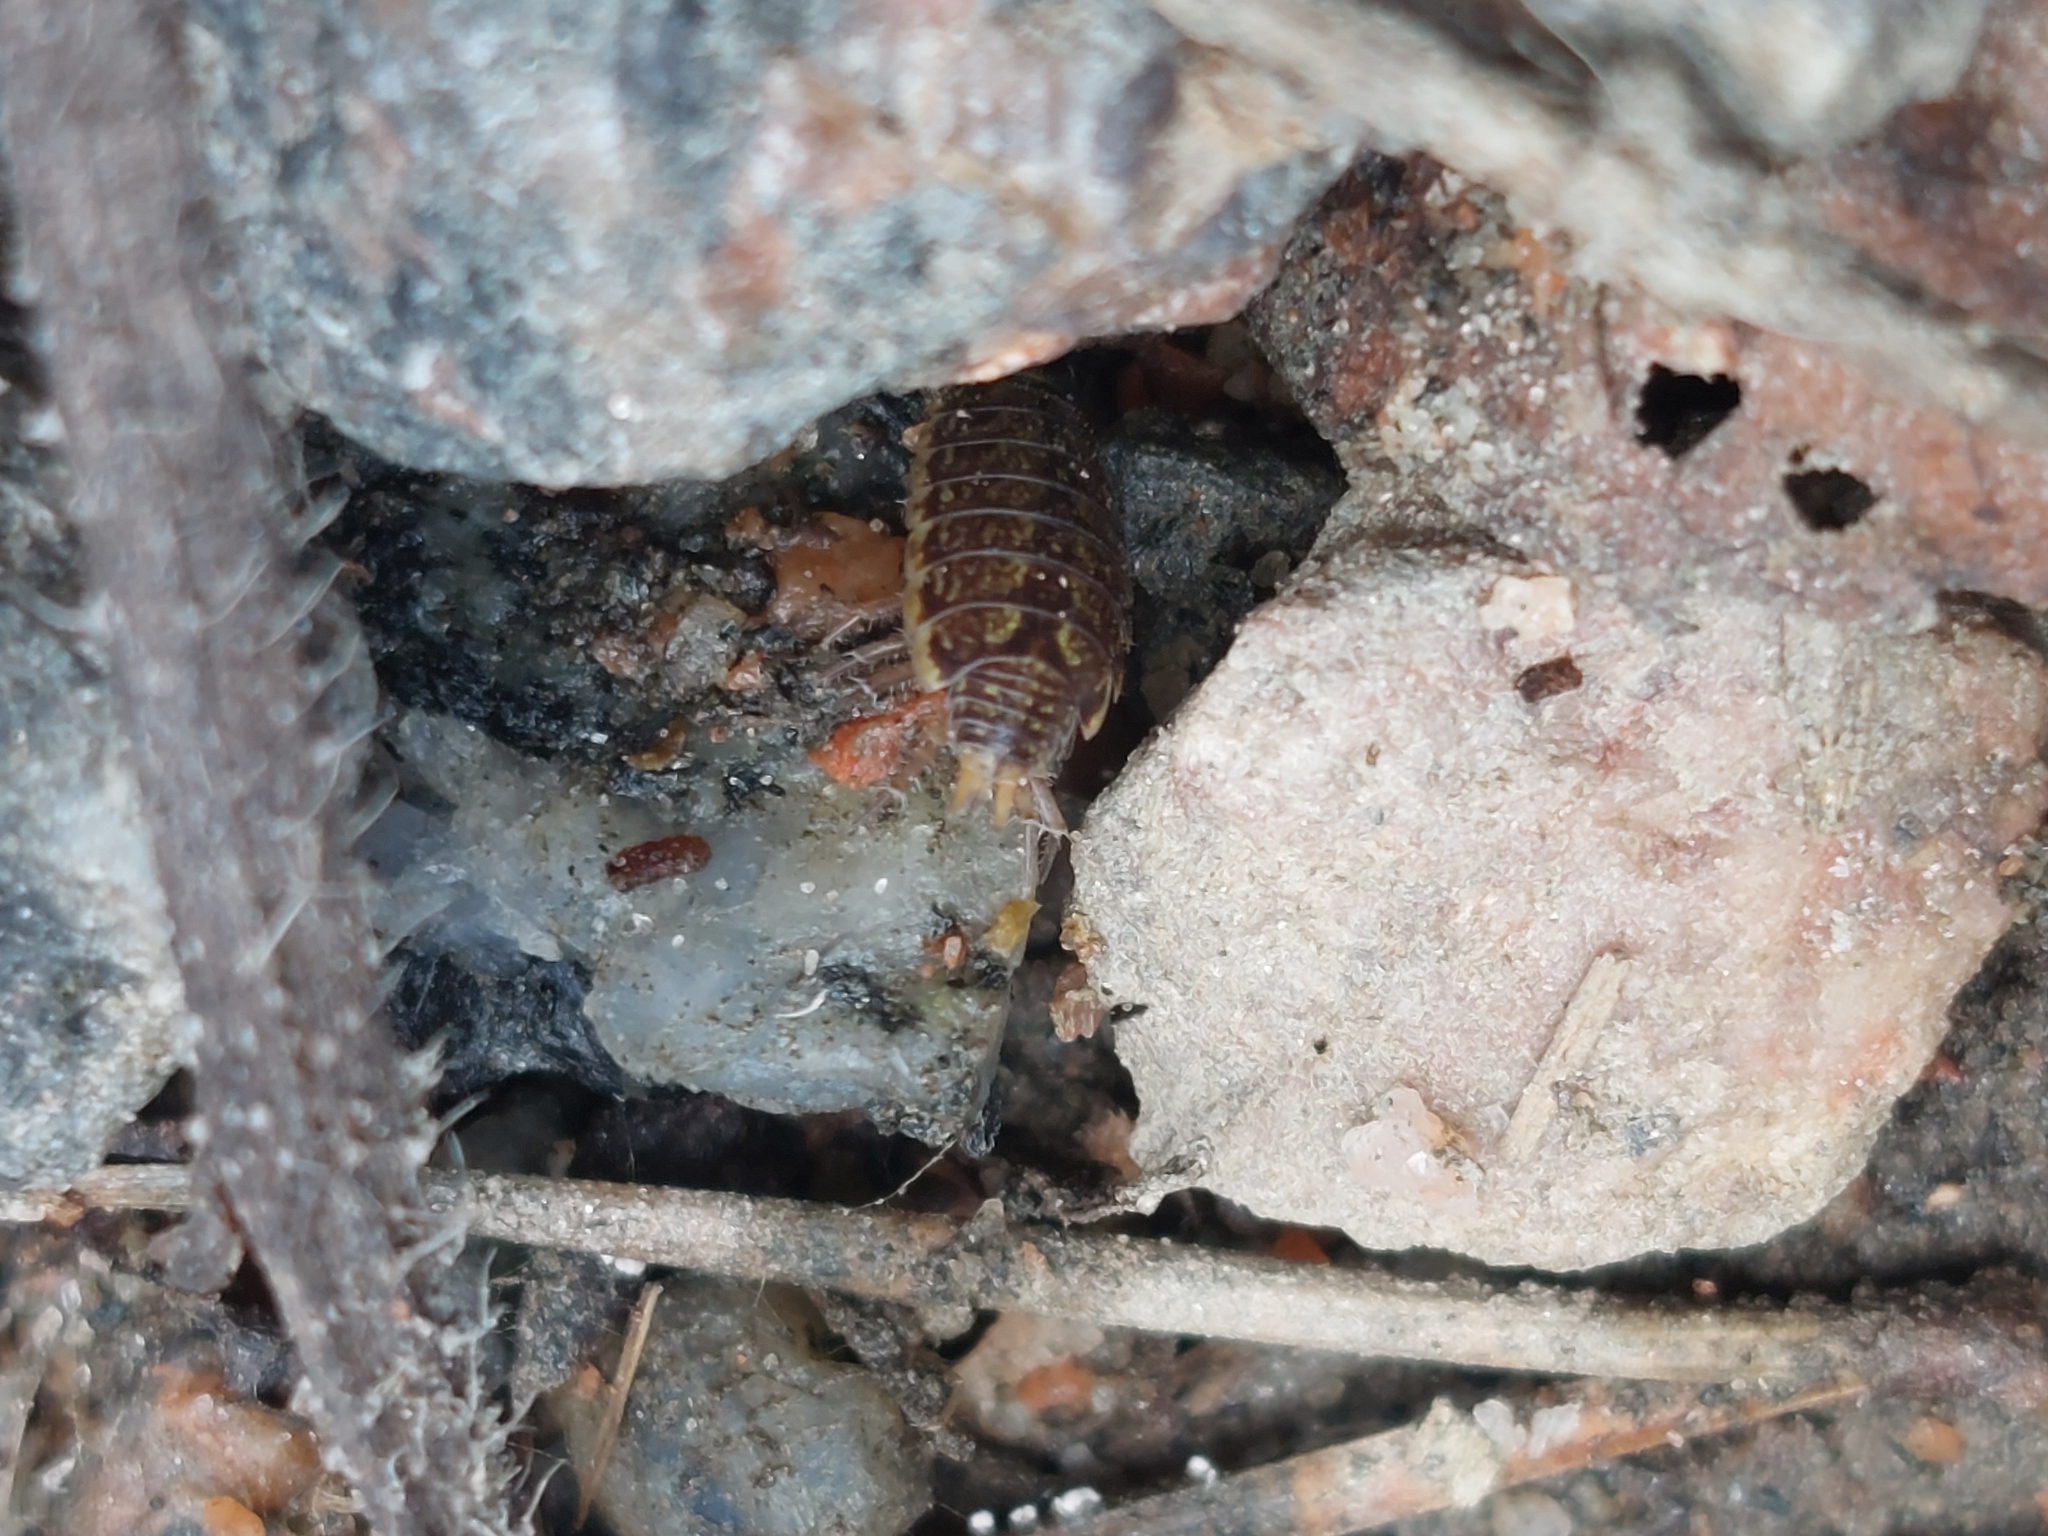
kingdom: Animalia
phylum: Arthropoda
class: Malacostraca
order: Isopoda
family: Philosciidae
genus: Philoscia
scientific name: Philoscia muscorum
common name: Common striped woodlouse
